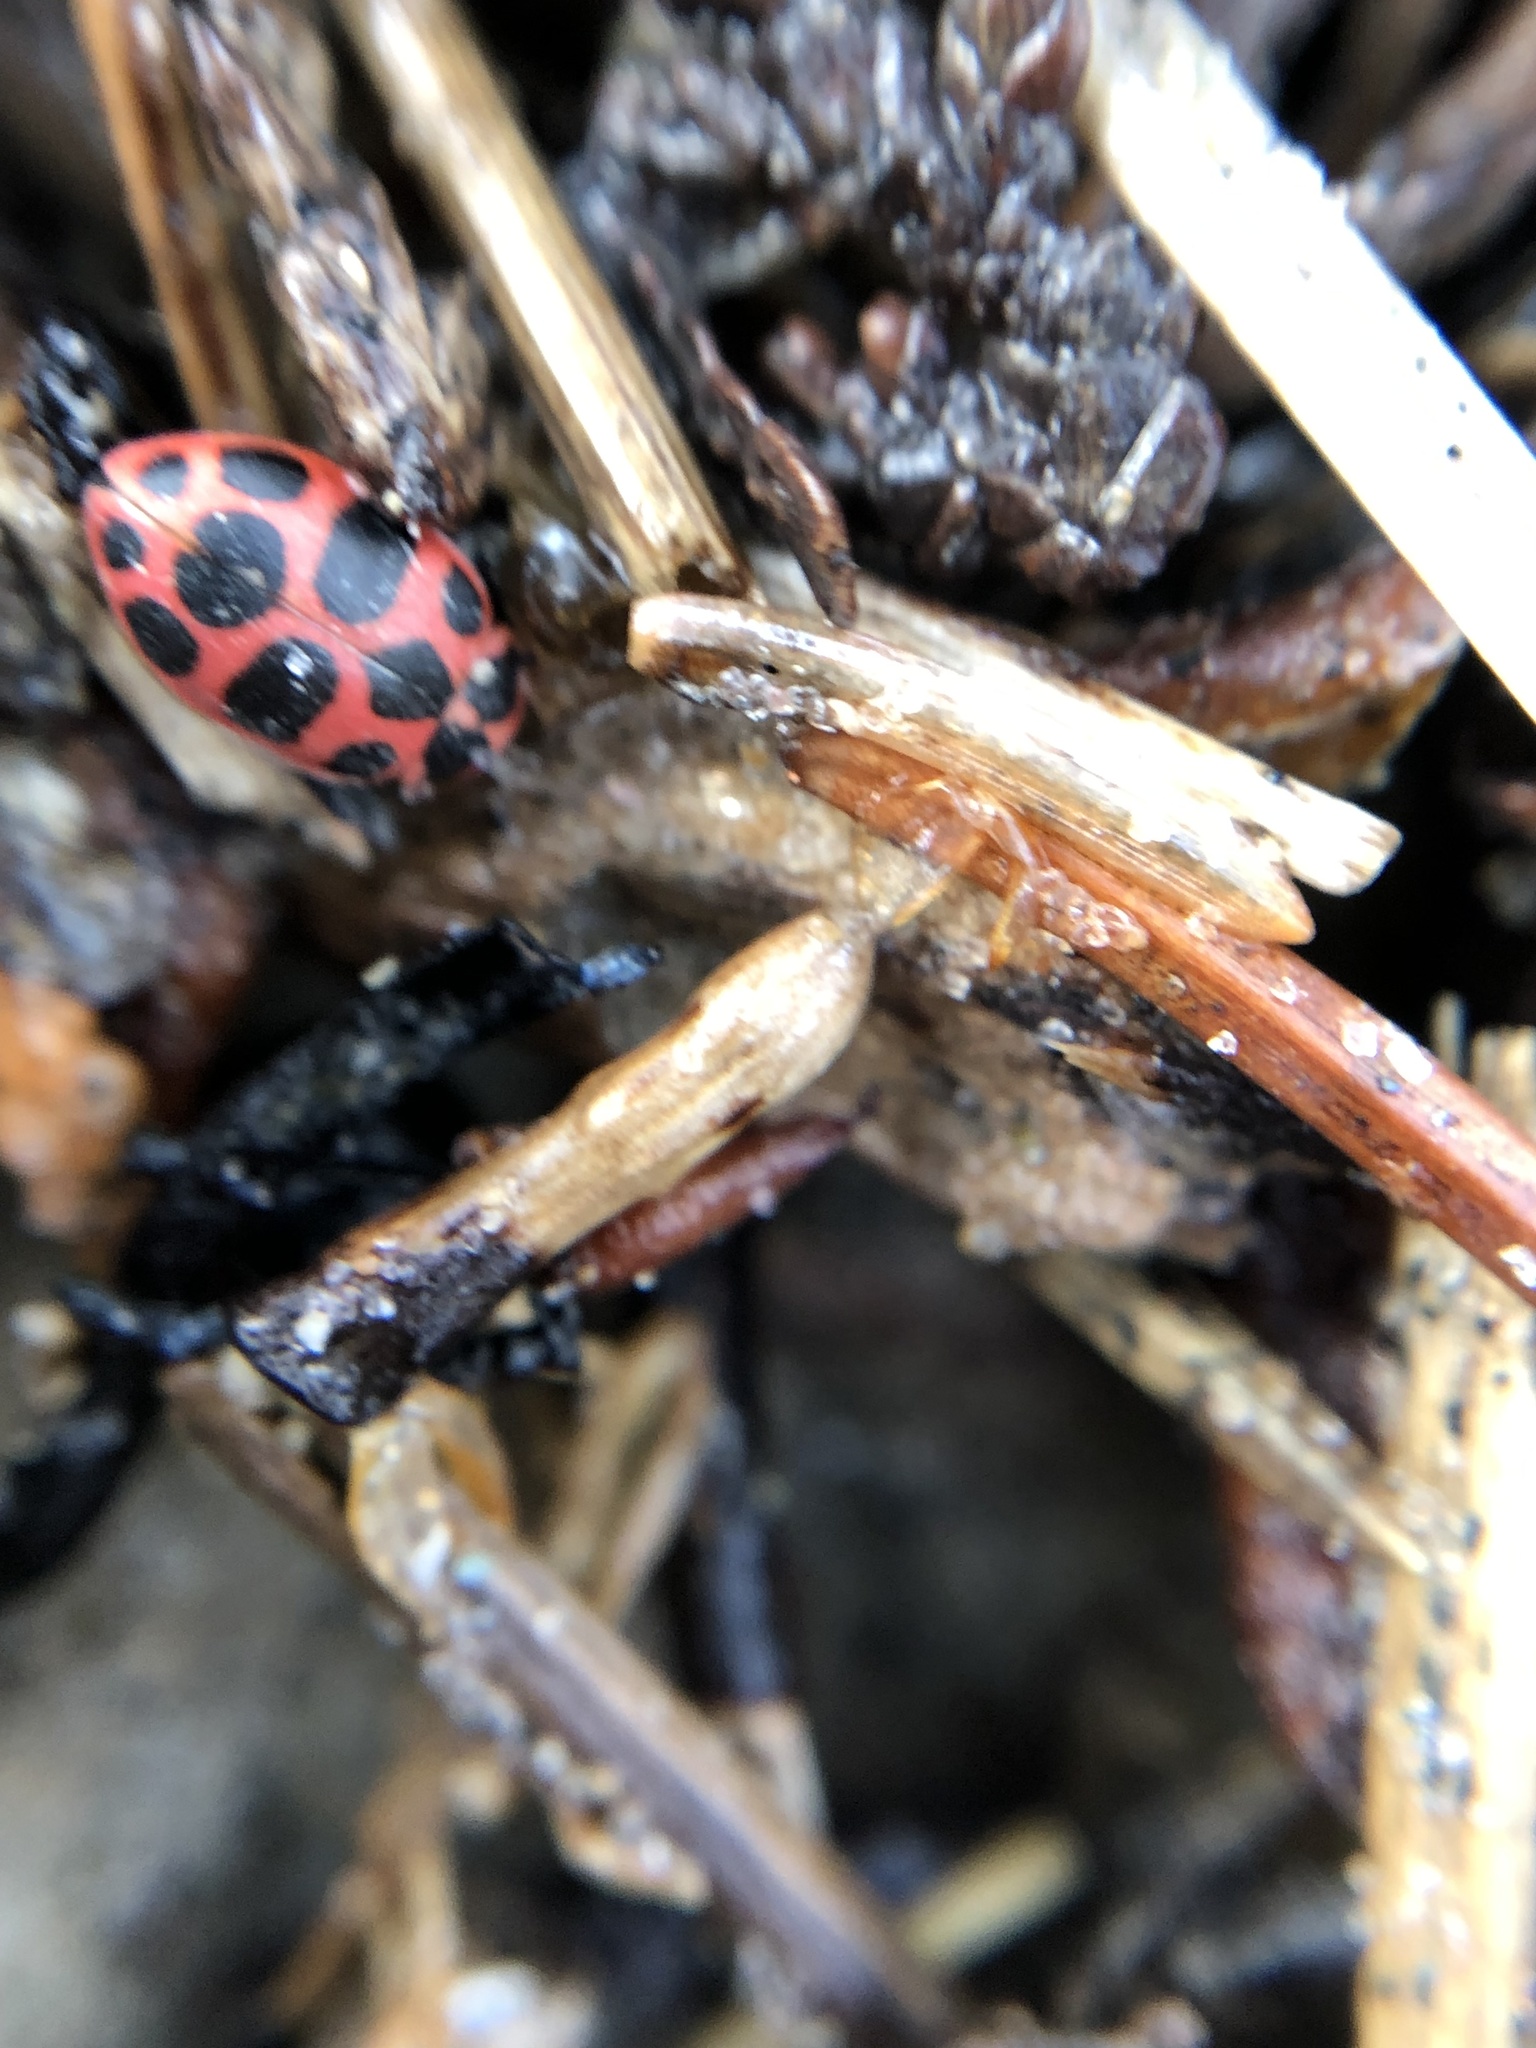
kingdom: Animalia
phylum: Arthropoda
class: Insecta
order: Coleoptera
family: Coccinellidae
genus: Coleomegilla
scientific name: Coleomegilla maculata
